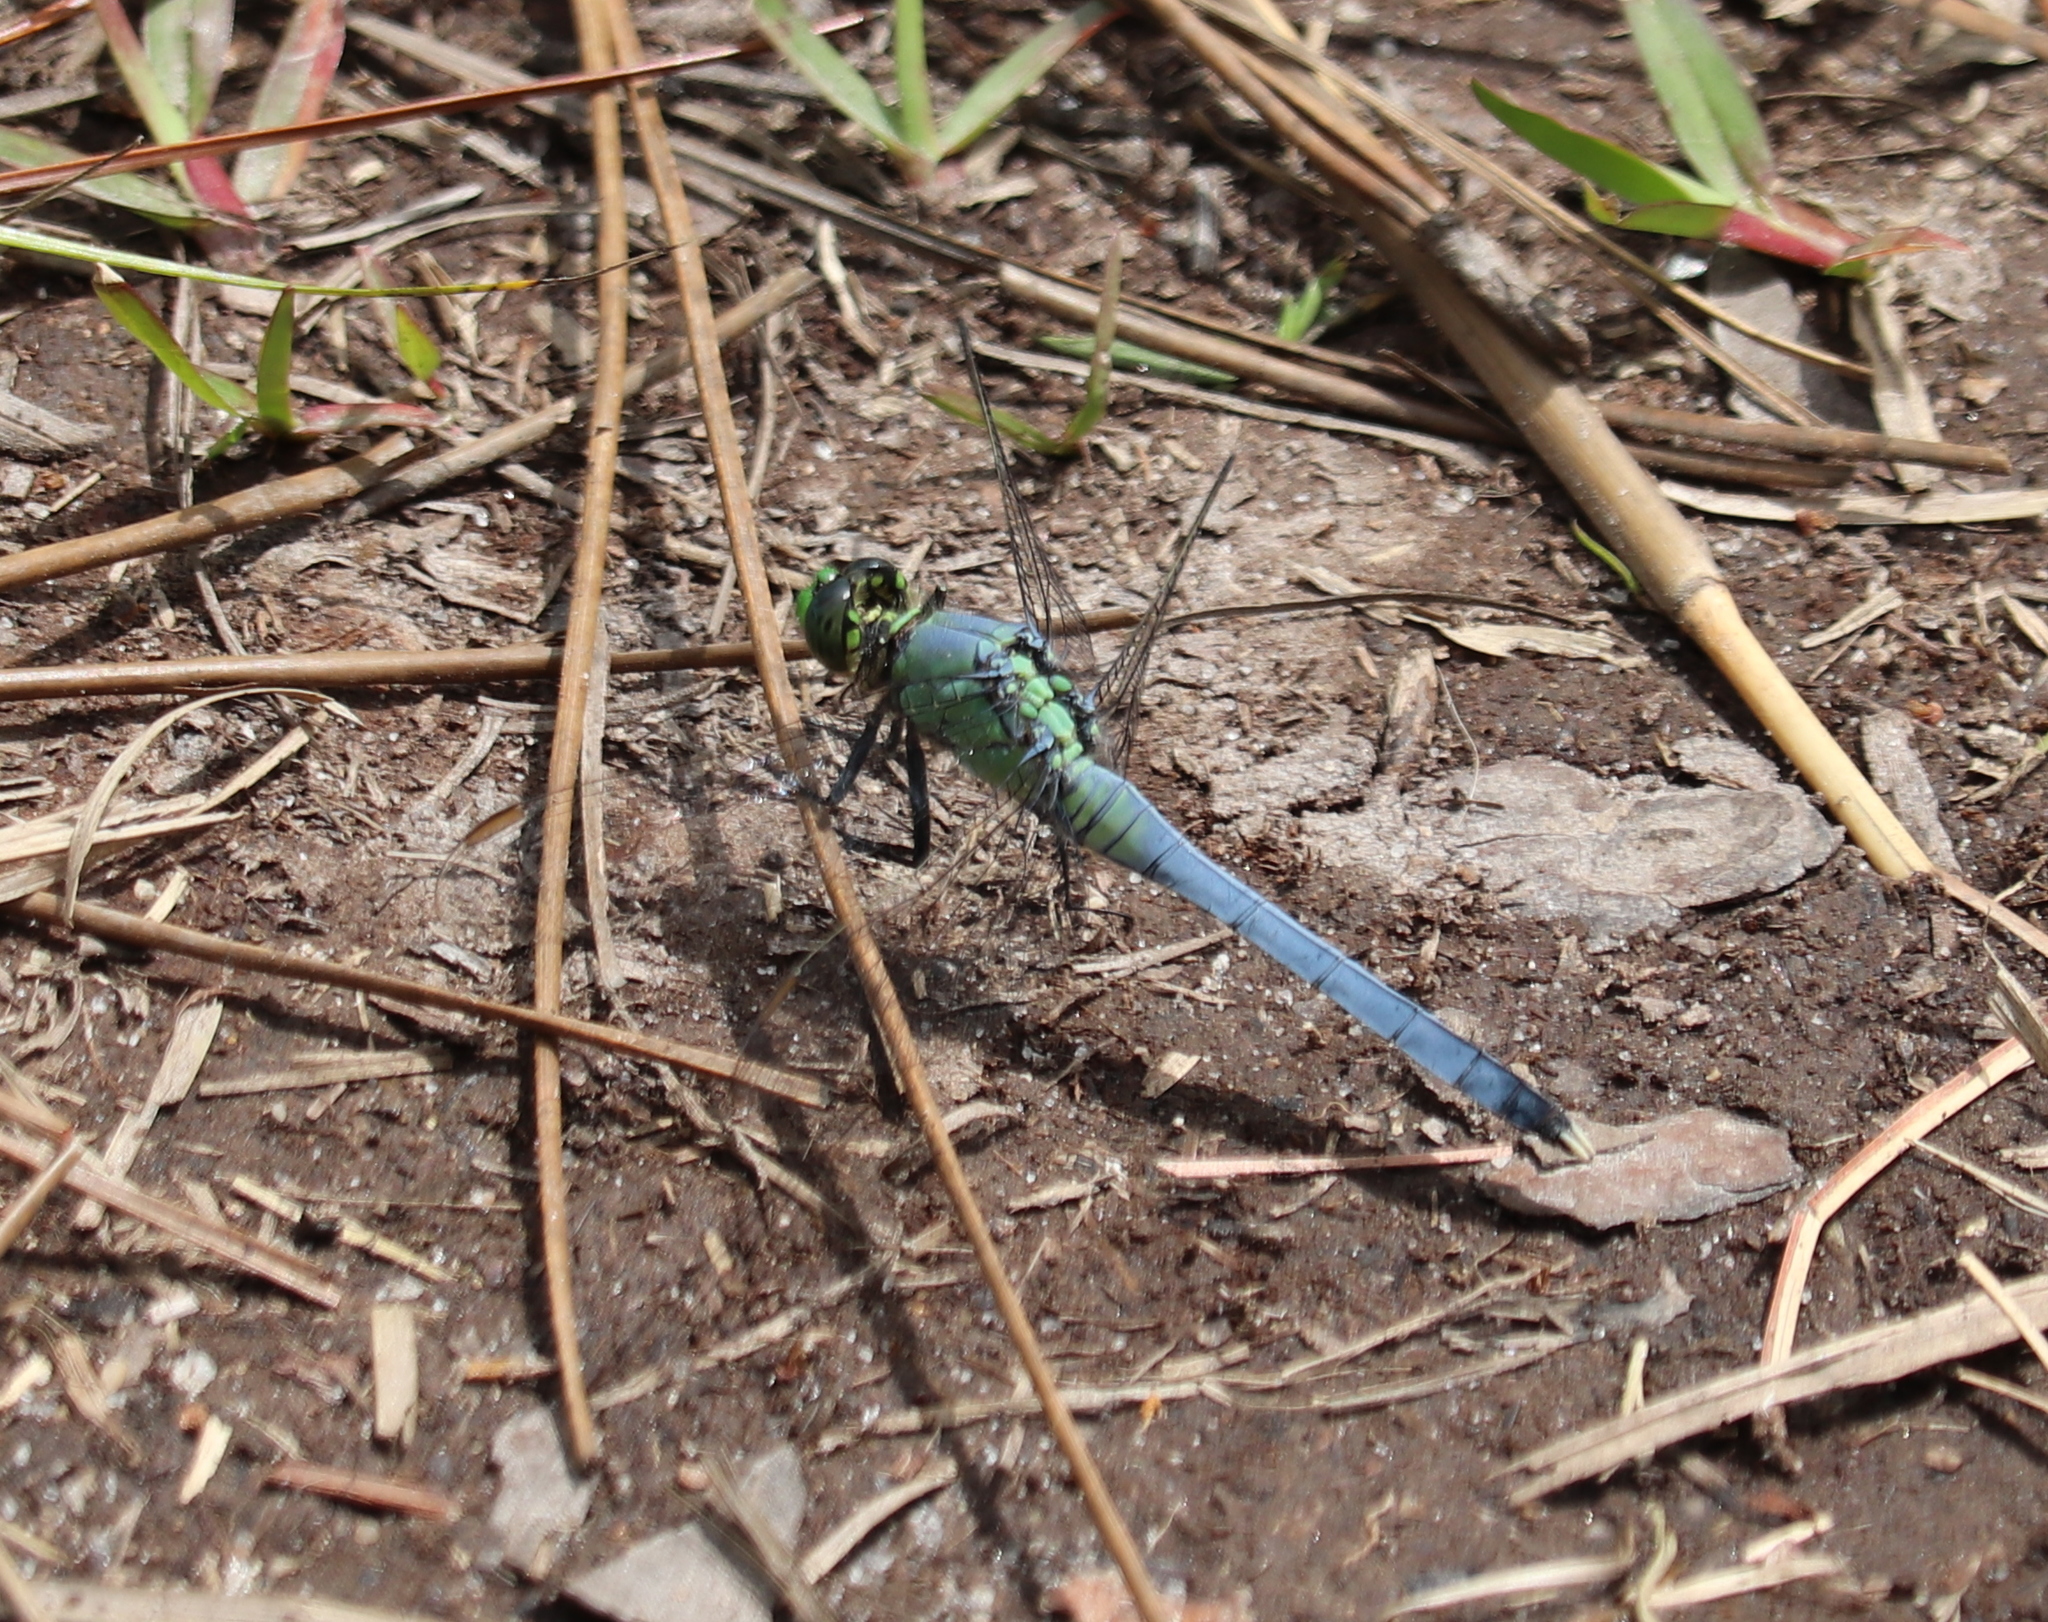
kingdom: Animalia
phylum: Arthropoda
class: Insecta
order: Odonata
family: Libellulidae
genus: Erythemis
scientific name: Erythemis simplicicollis
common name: Eastern pondhawk
